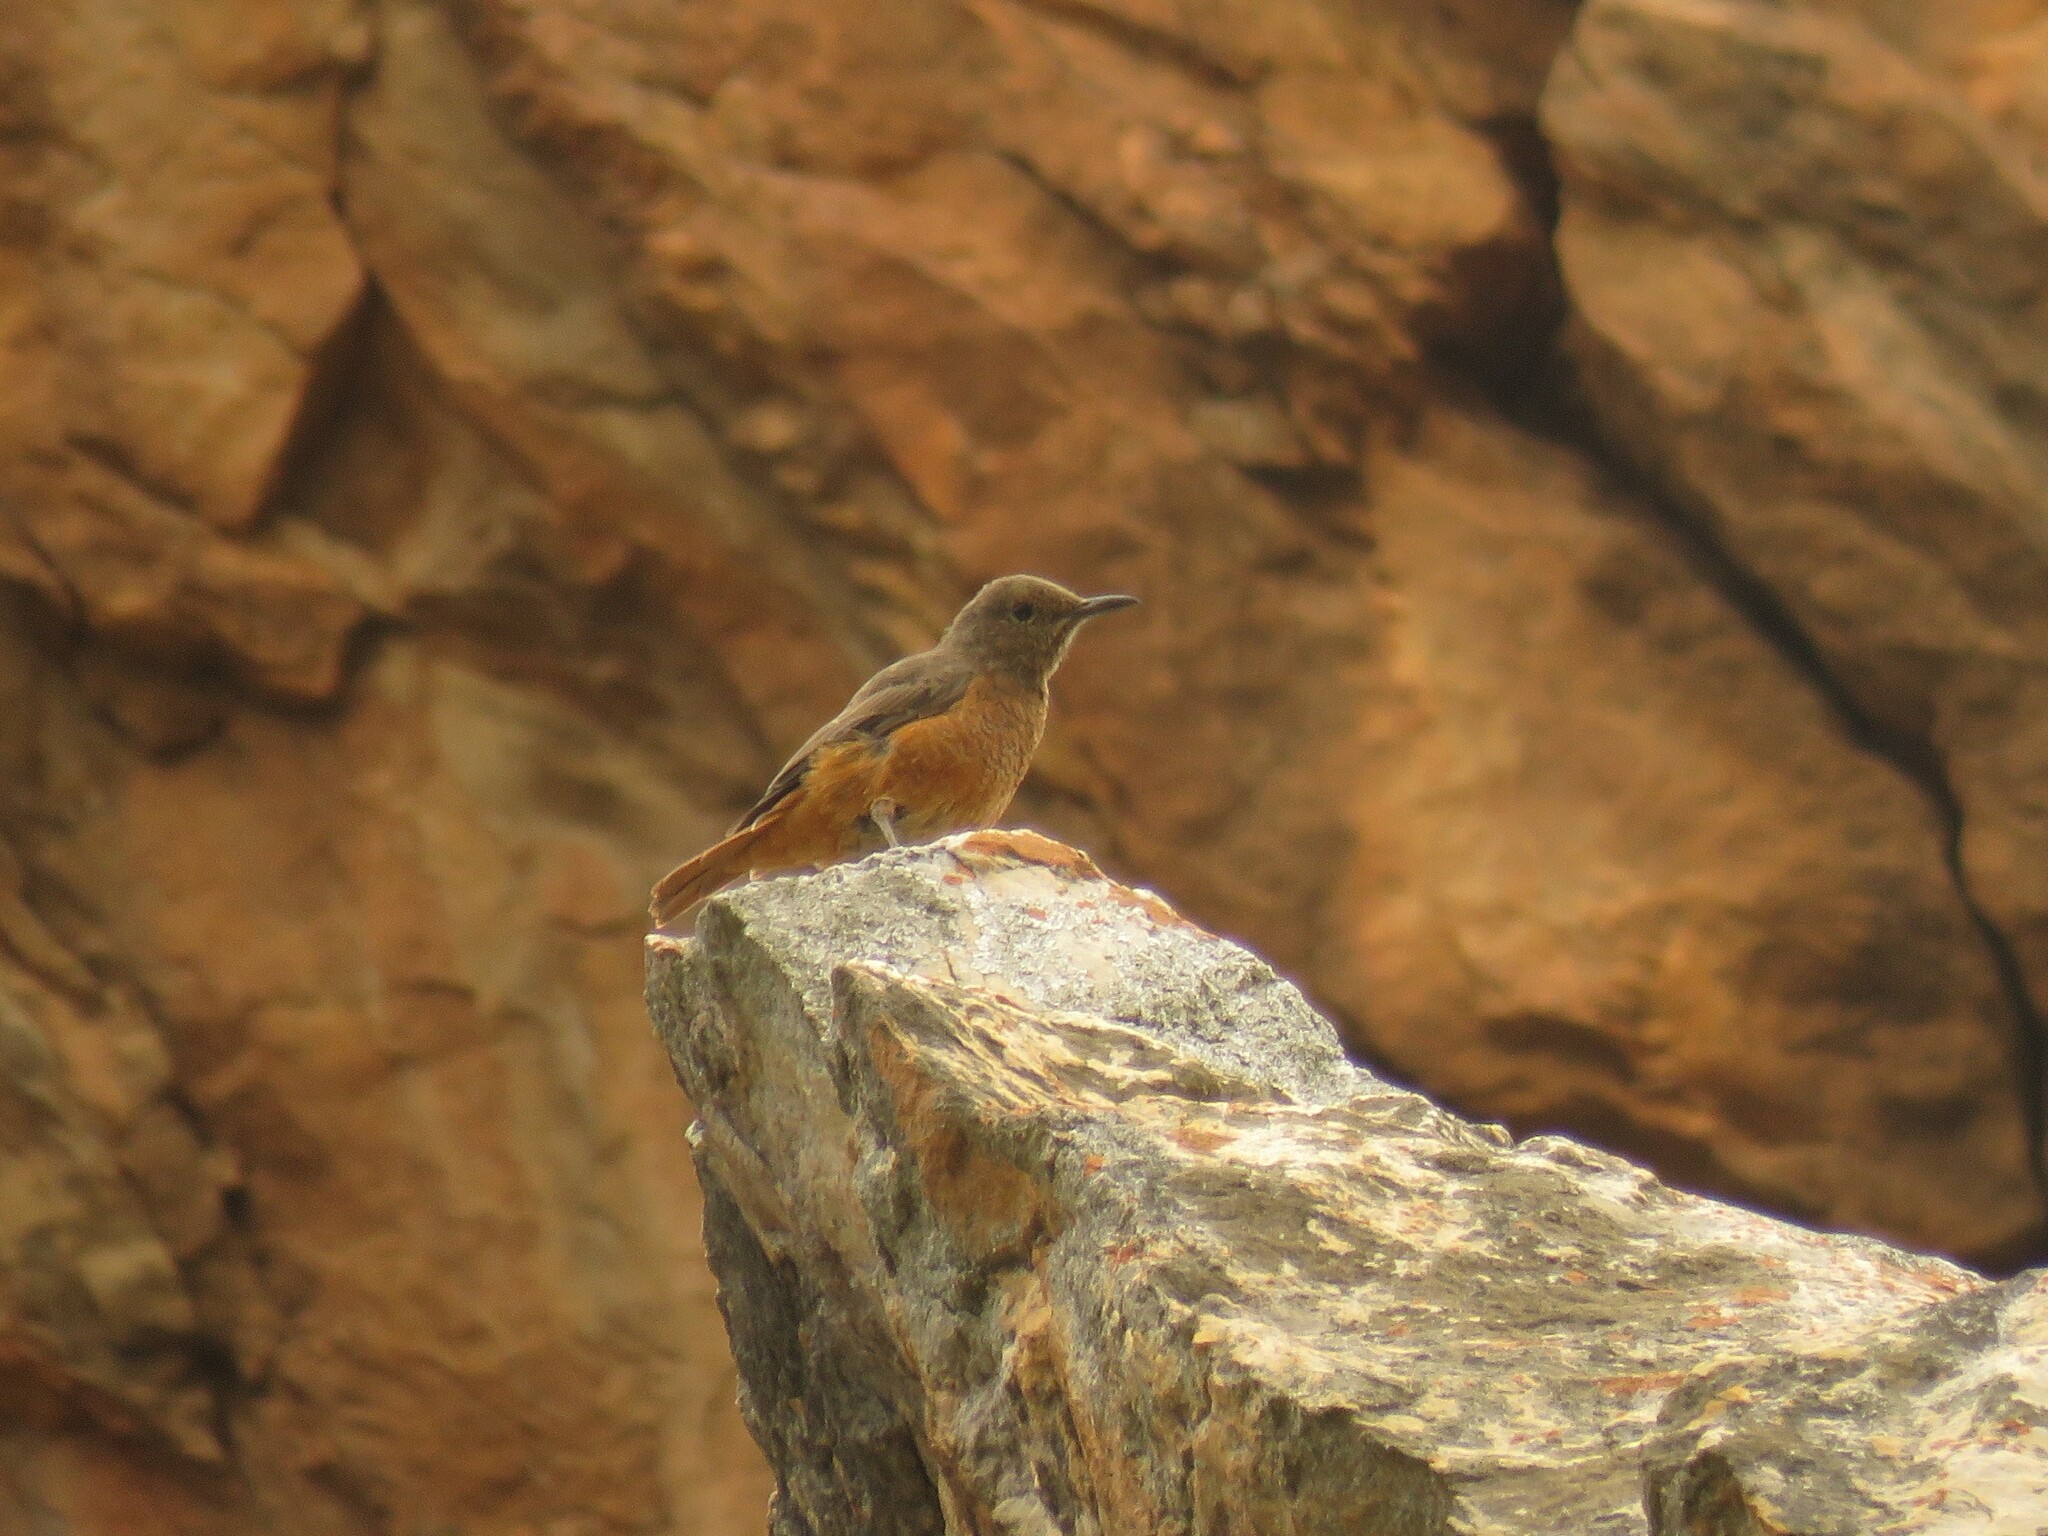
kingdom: Animalia
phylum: Chordata
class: Aves
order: Passeriformes
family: Muscicapidae
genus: Monticola
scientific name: Monticola rupestris
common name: Cape rock thrush
